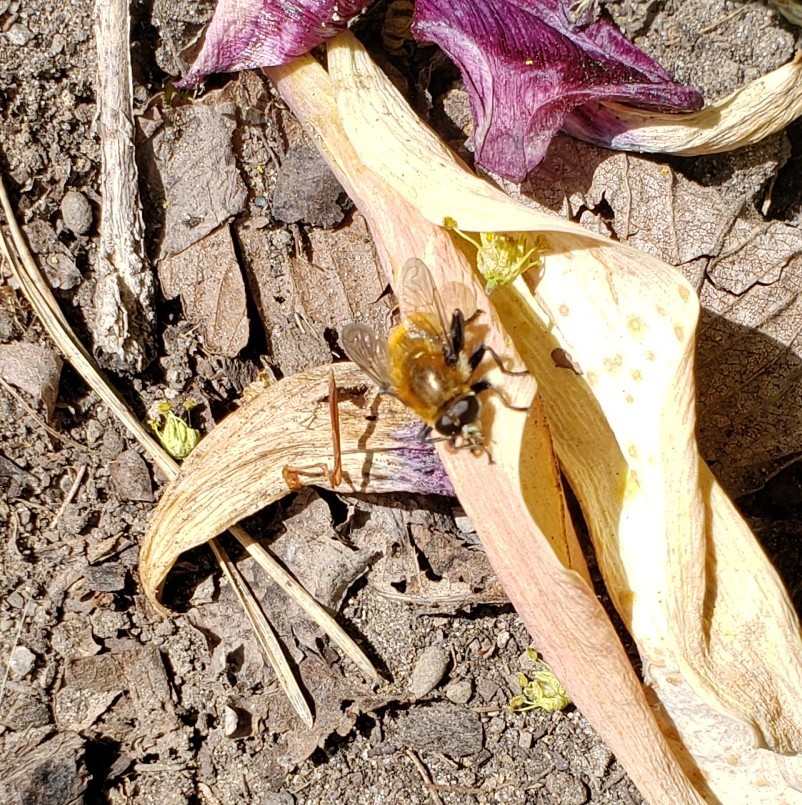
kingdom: Animalia
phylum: Arthropoda
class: Insecta
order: Diptera
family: Syrphidae
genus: Merodon
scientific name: Merodon equestris
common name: Greater bulb-fly
